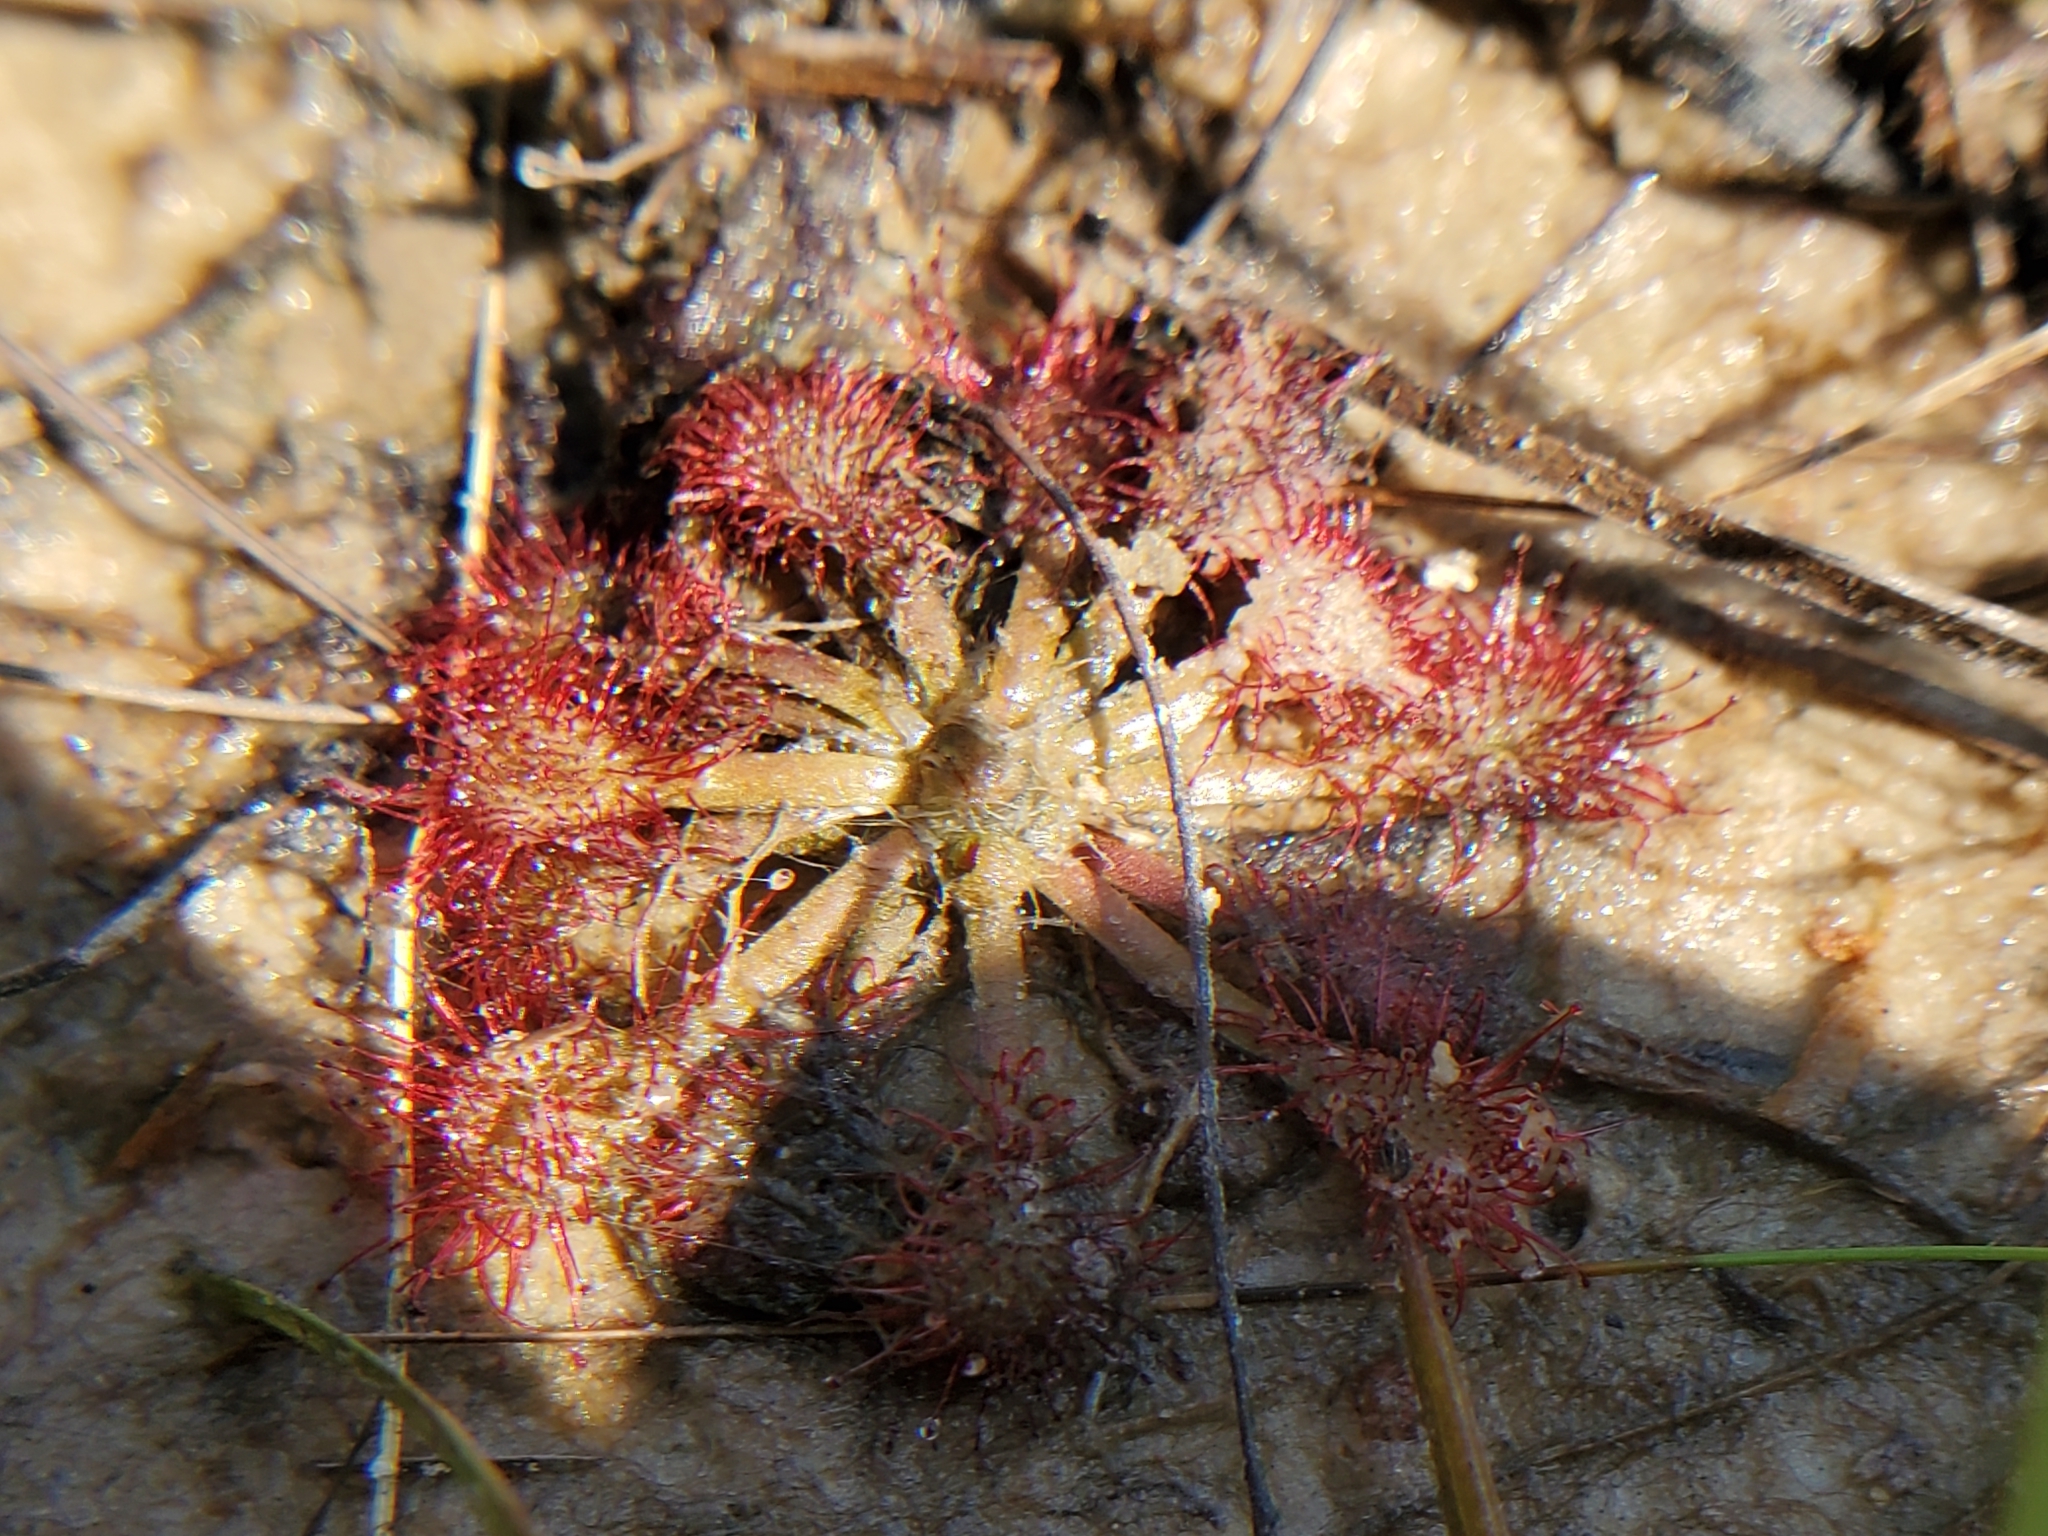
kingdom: Plantae
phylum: Tracheophyta
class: Magnoliopsida
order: Caryophyllales
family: Droseraceae
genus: Drosera
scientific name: Drosera capillaris
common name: Pink sundew
